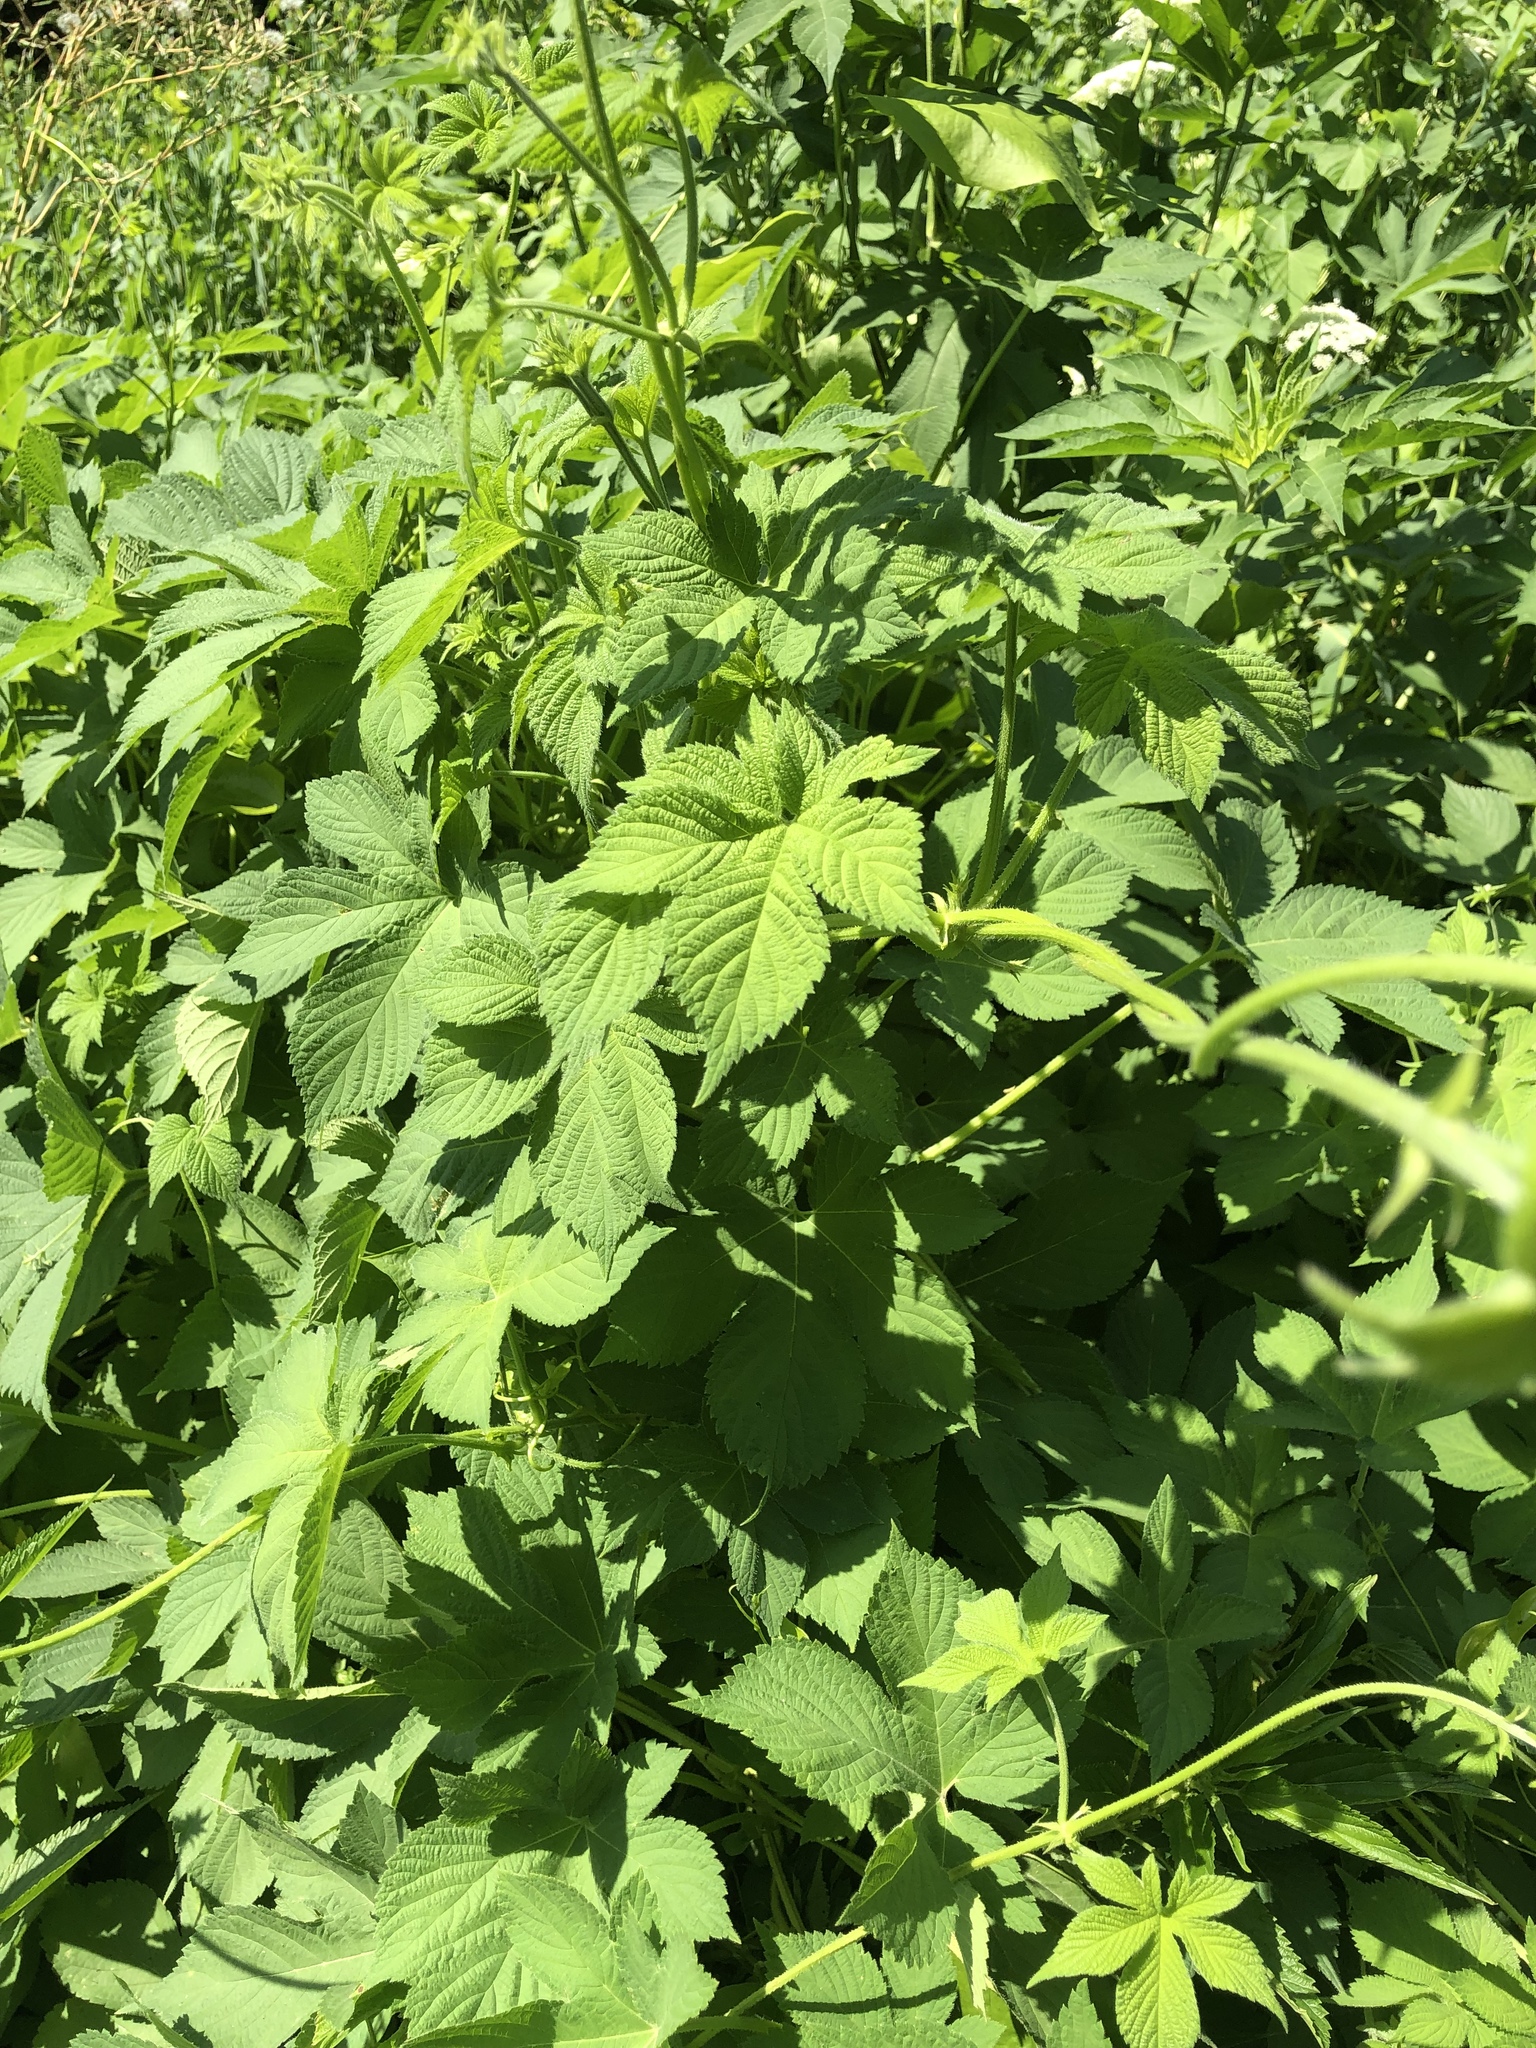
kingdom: Plantae
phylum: Tracheophyta
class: Magnoliopsida
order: Rosales
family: Cannabaceae
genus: Humulus
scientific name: Humulus scandens
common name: Japanese hop
